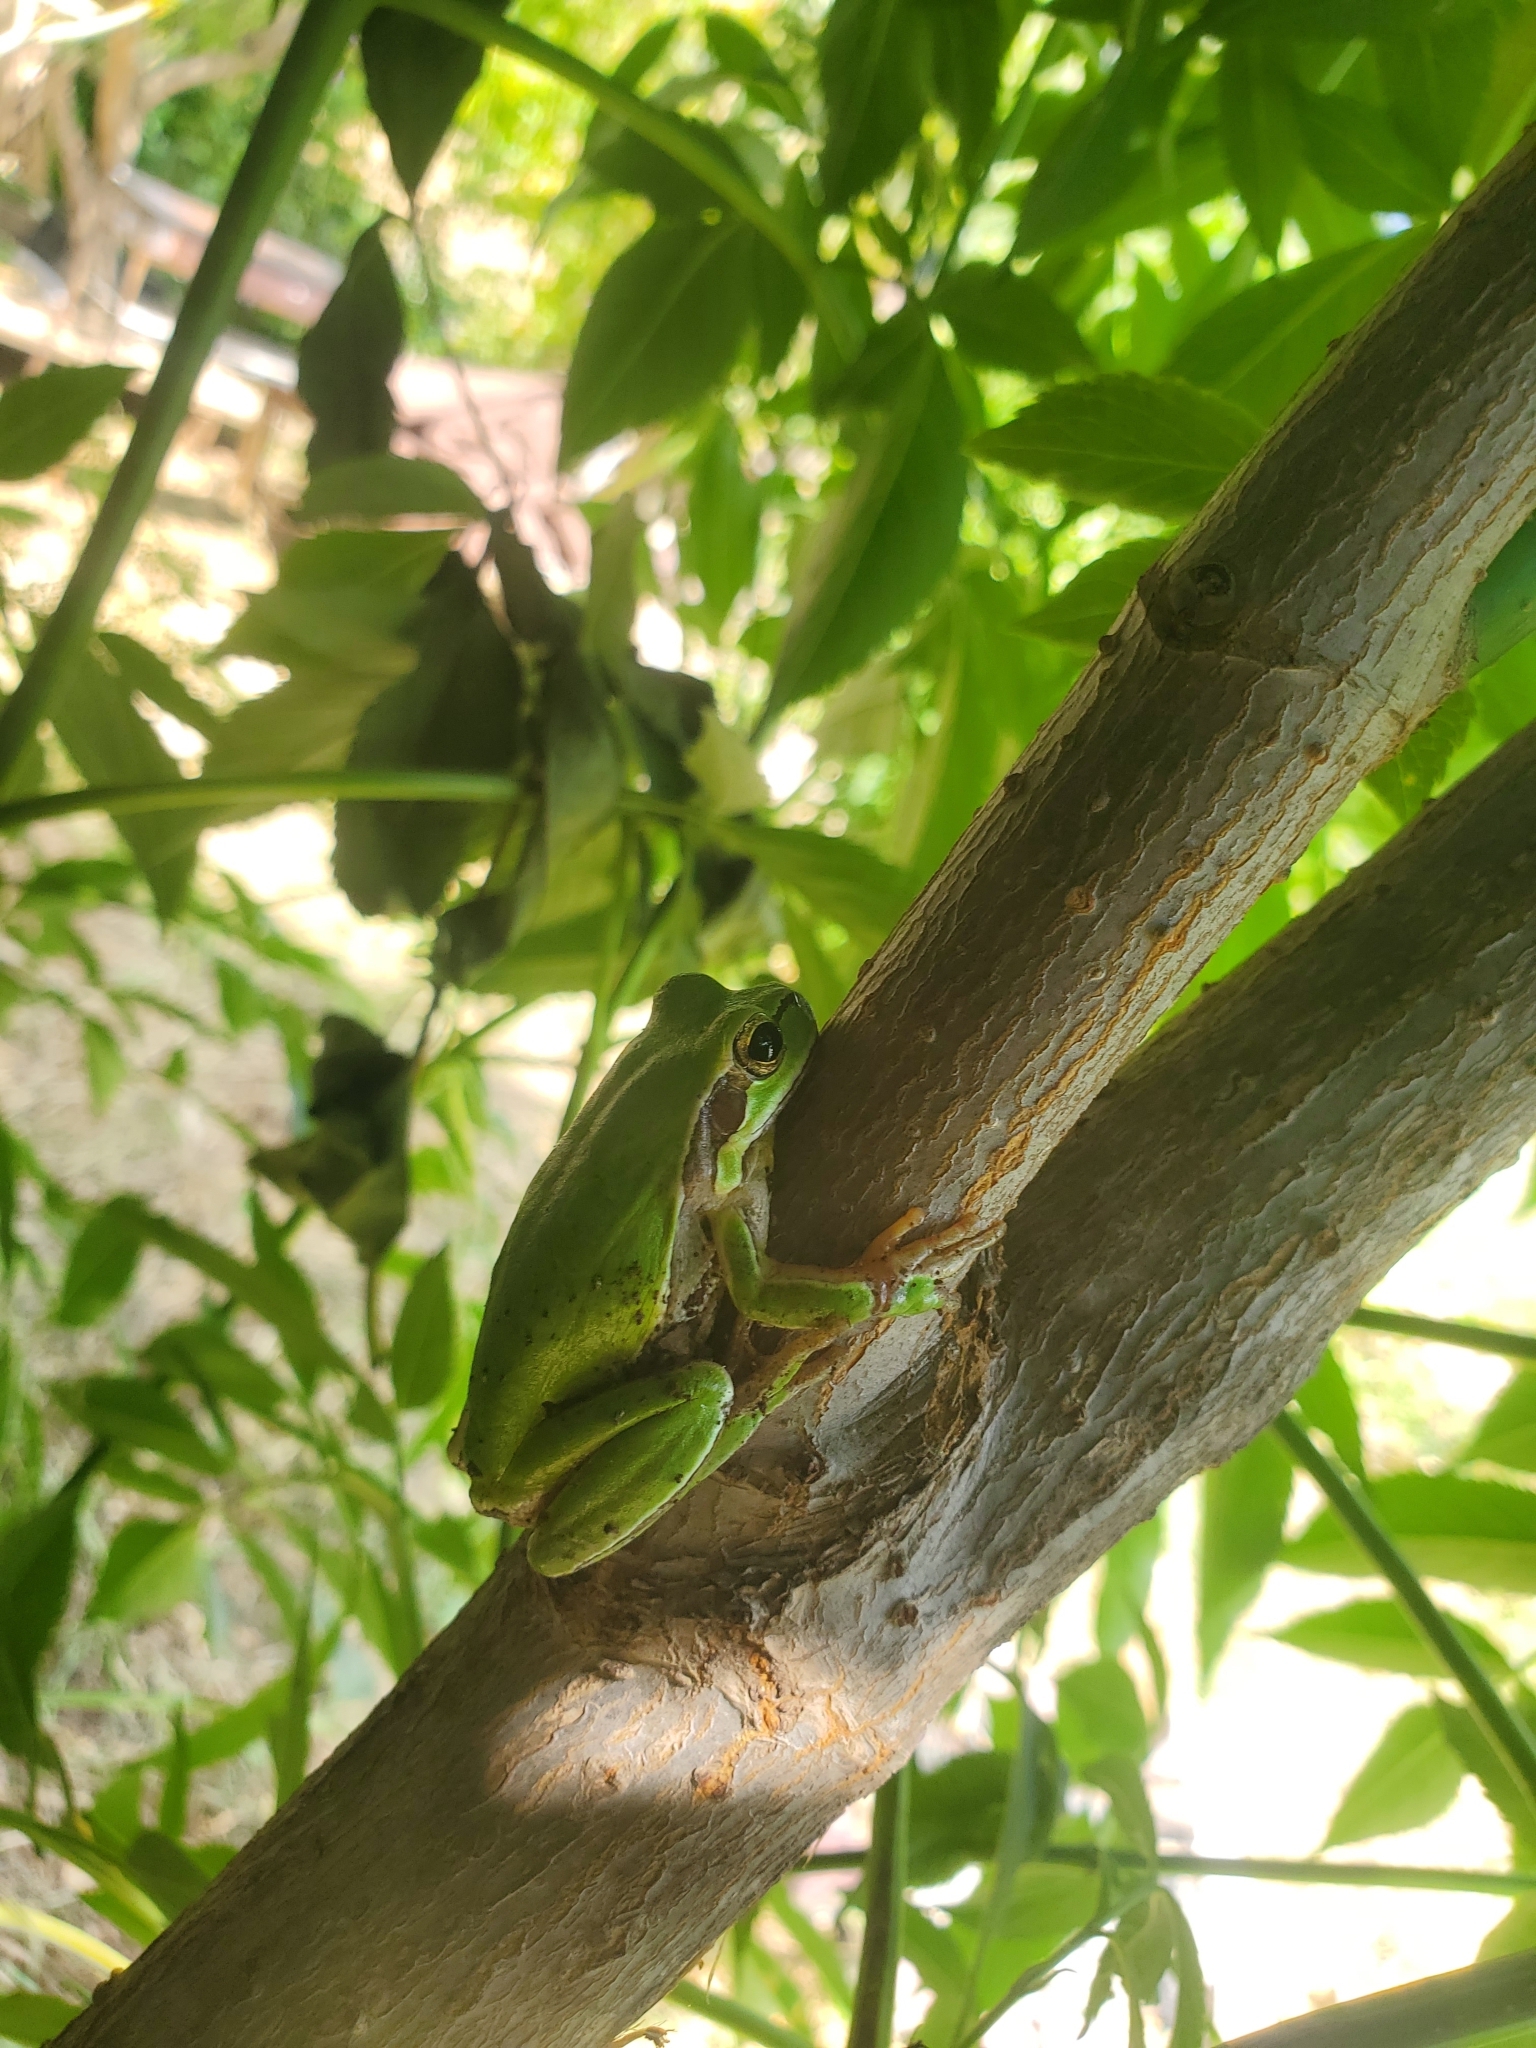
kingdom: Animalia
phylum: Chordata
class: Amphibia
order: Anura
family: Hylidae
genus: Hyla
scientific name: Hyla savignyi
